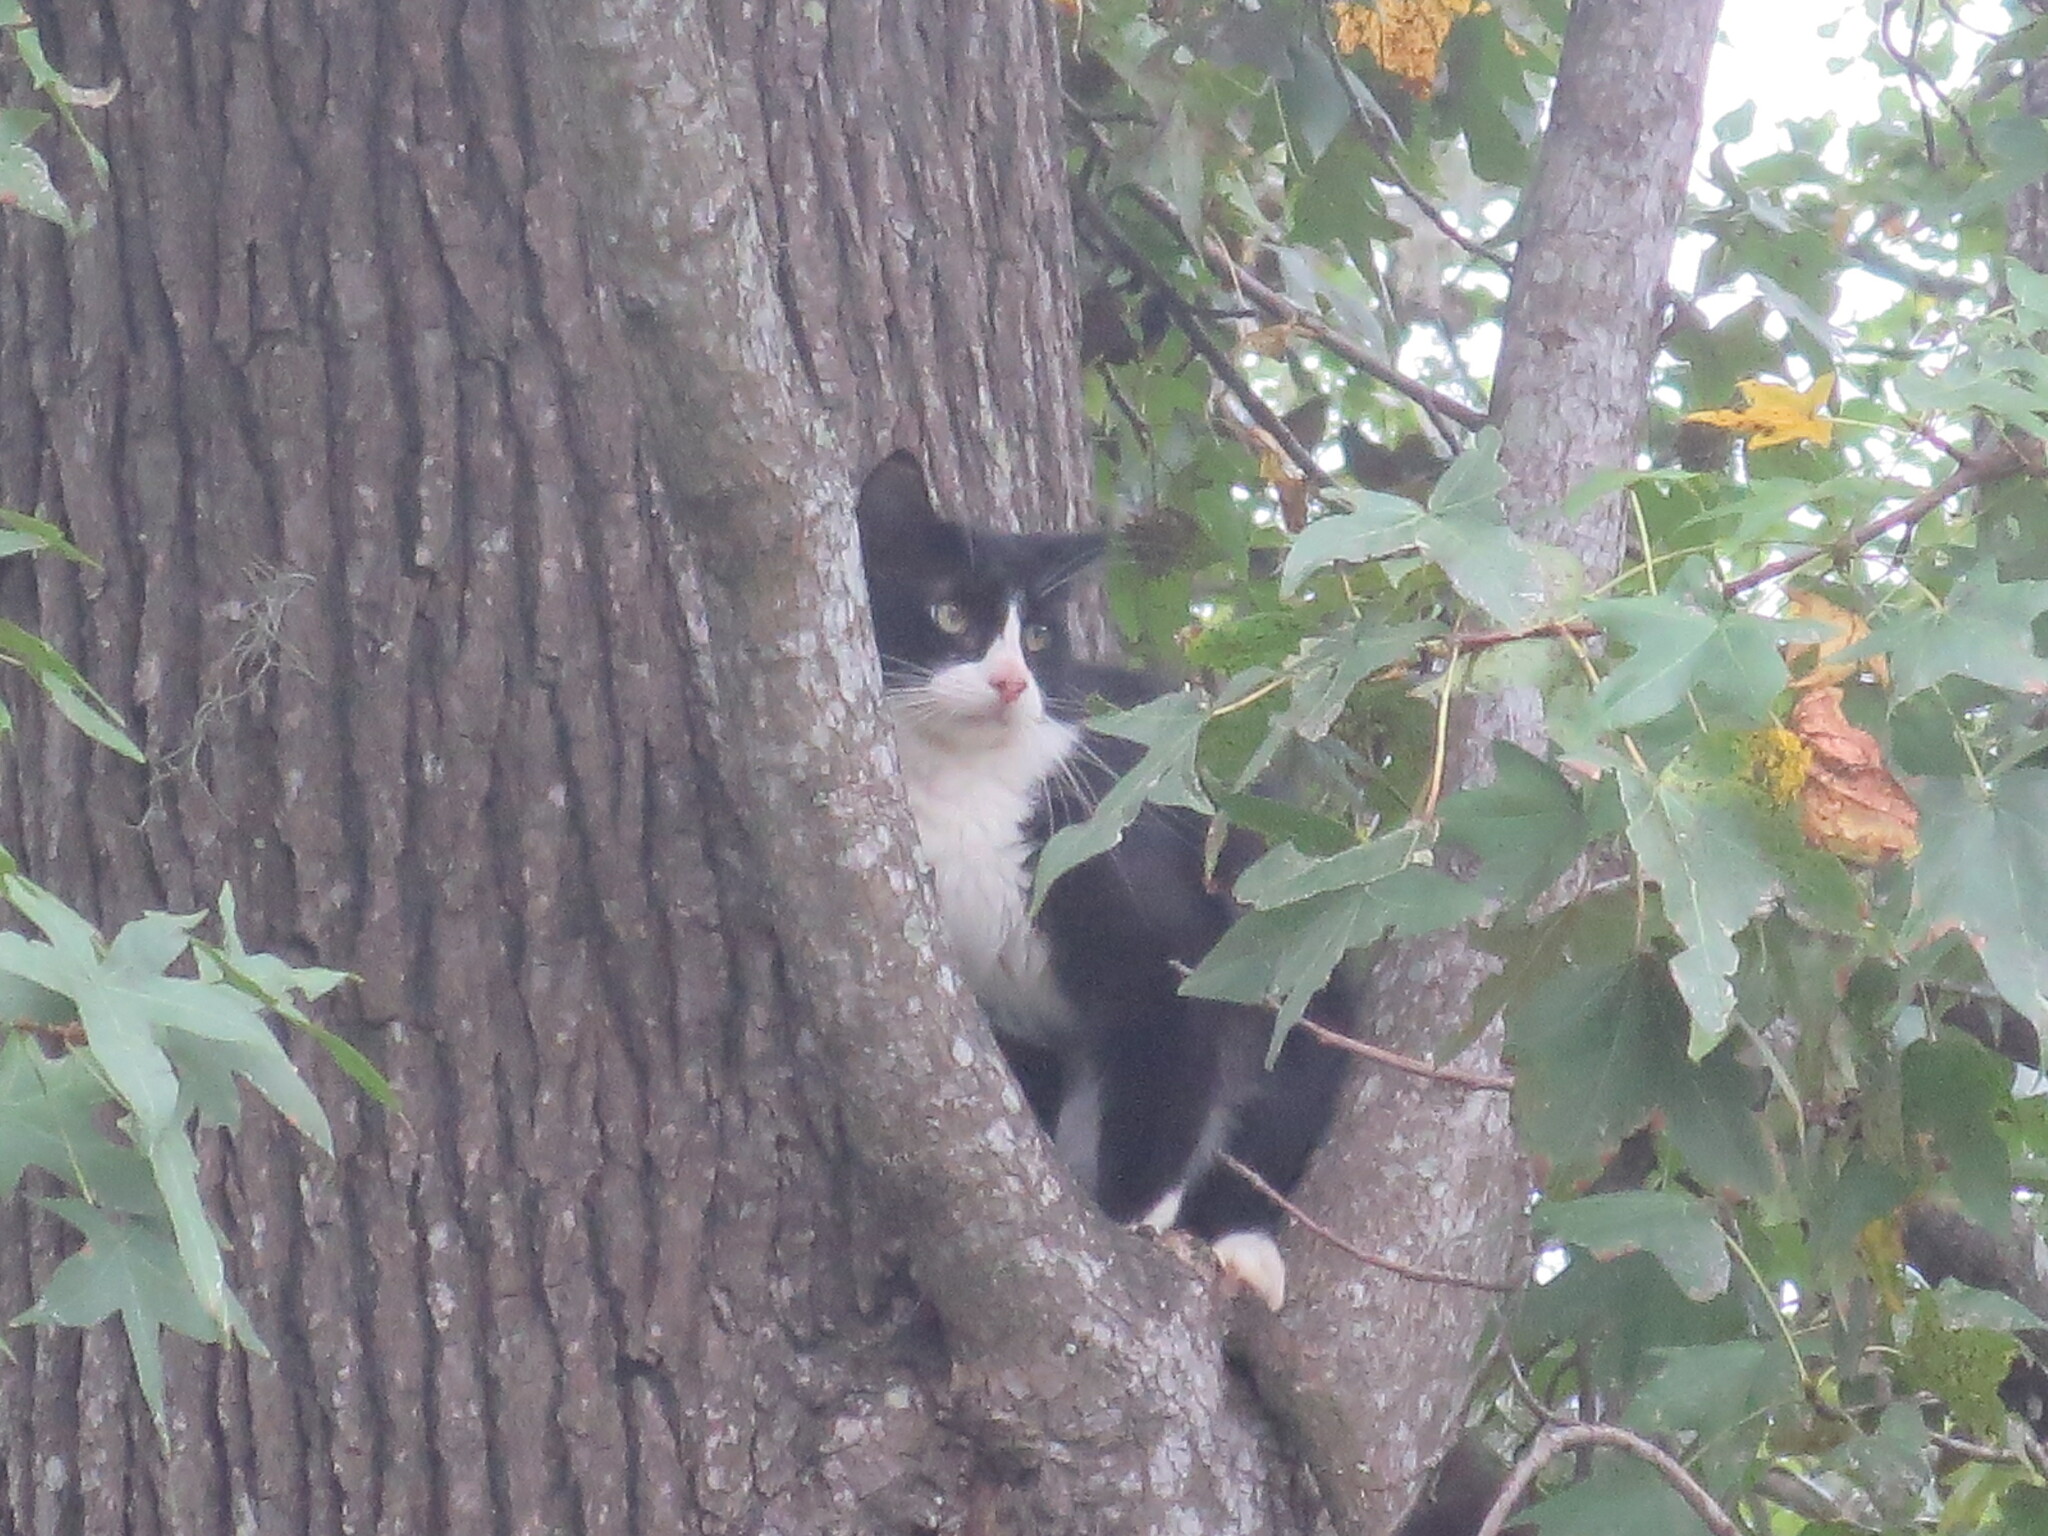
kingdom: Plantae
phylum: Tracheophyta
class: Magnoliopsida
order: Saxifragales
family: Altingiaceae
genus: Liquidambar
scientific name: Liquidambar styraciflua
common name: Sweet gum
